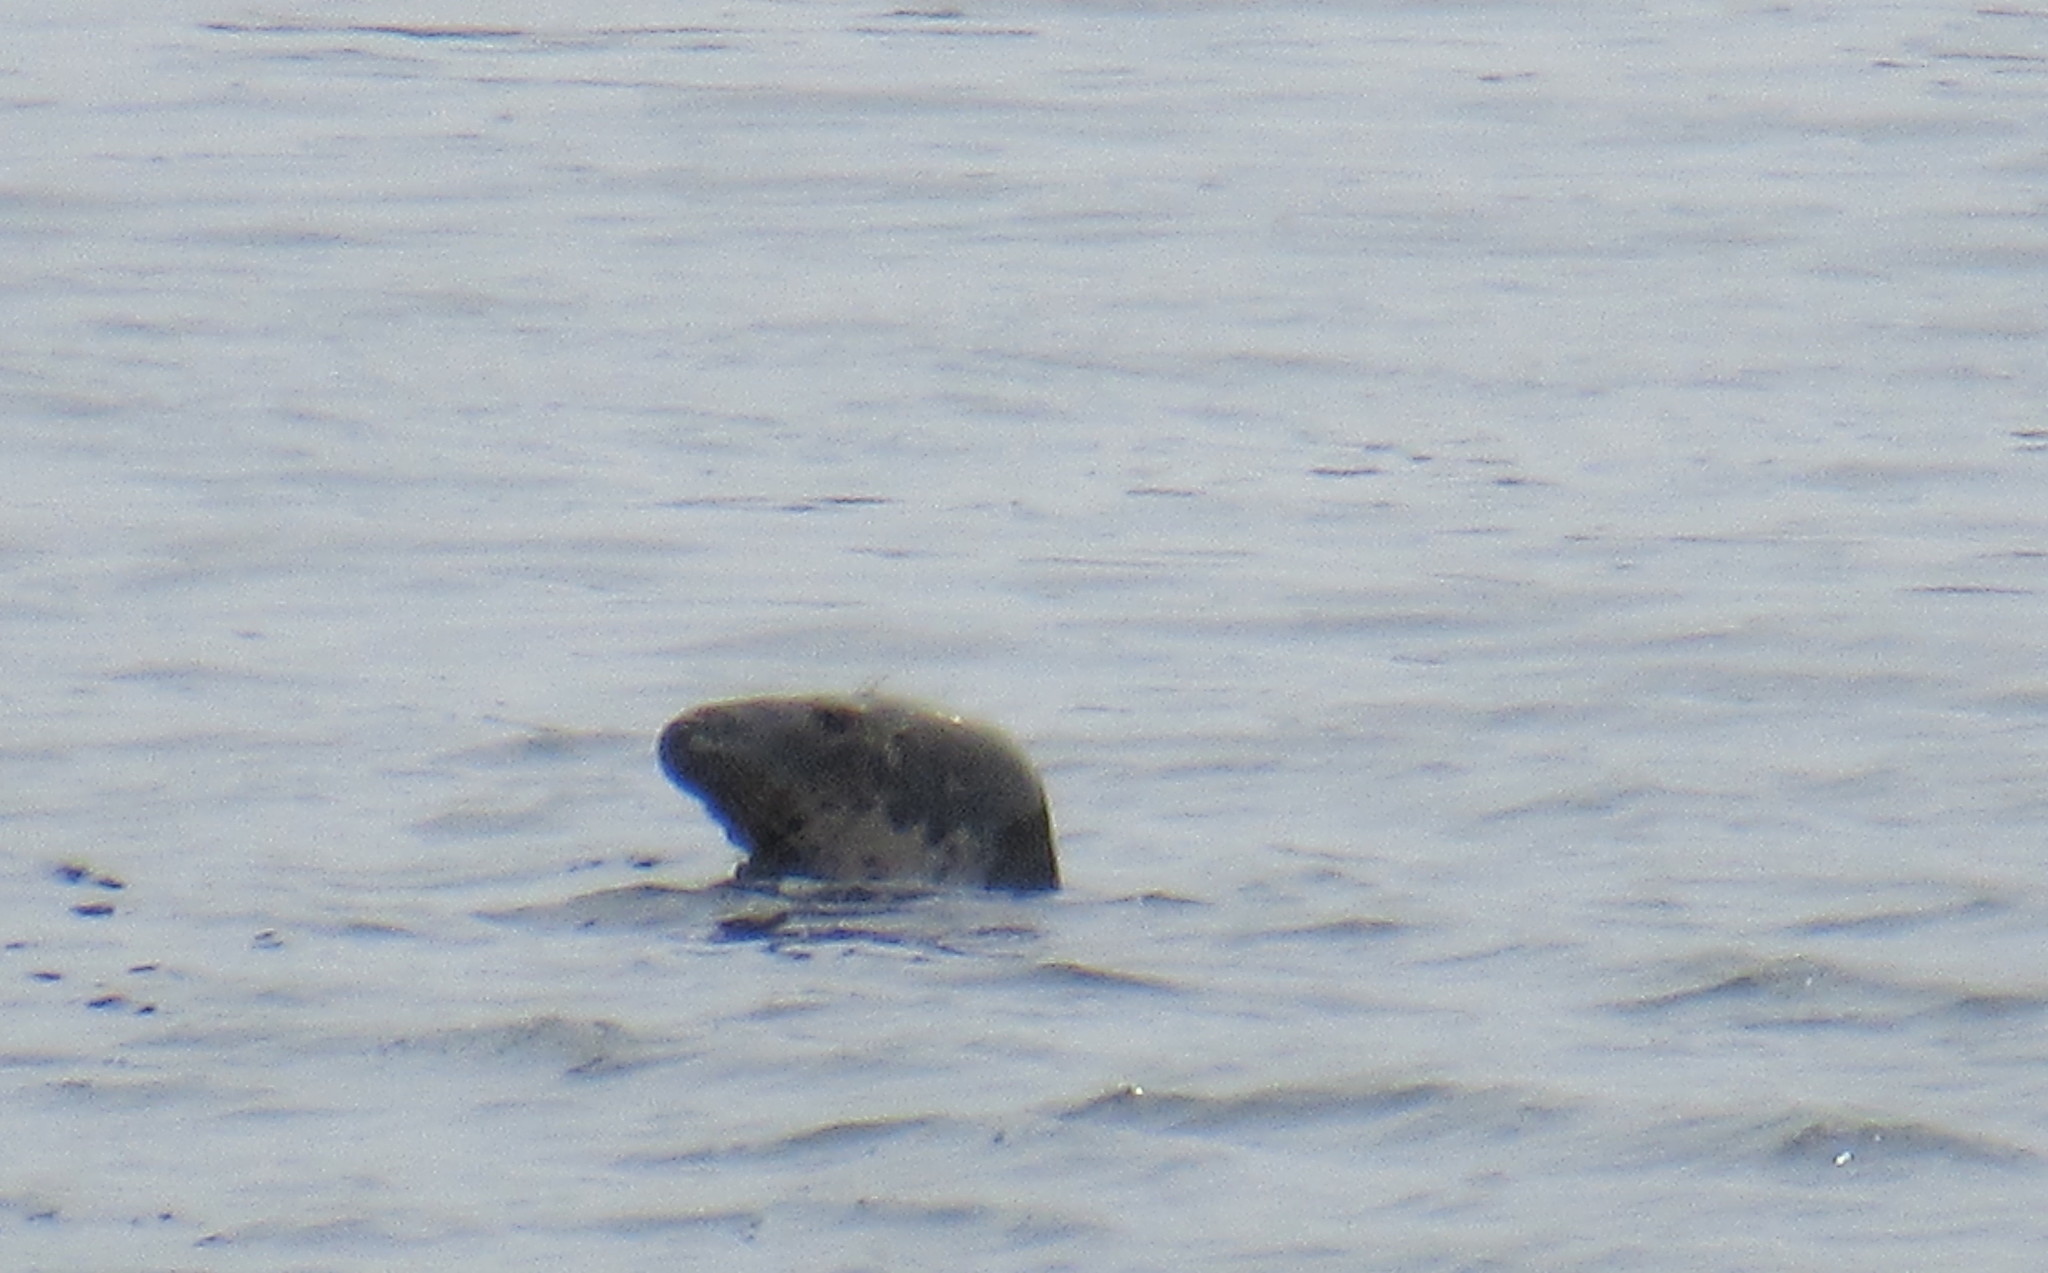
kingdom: Animalia
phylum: Chordata
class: Mammalia
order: Carnivora
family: Phocidae
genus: Halichoerus
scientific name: Halichoerus grypus
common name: Grey seal
